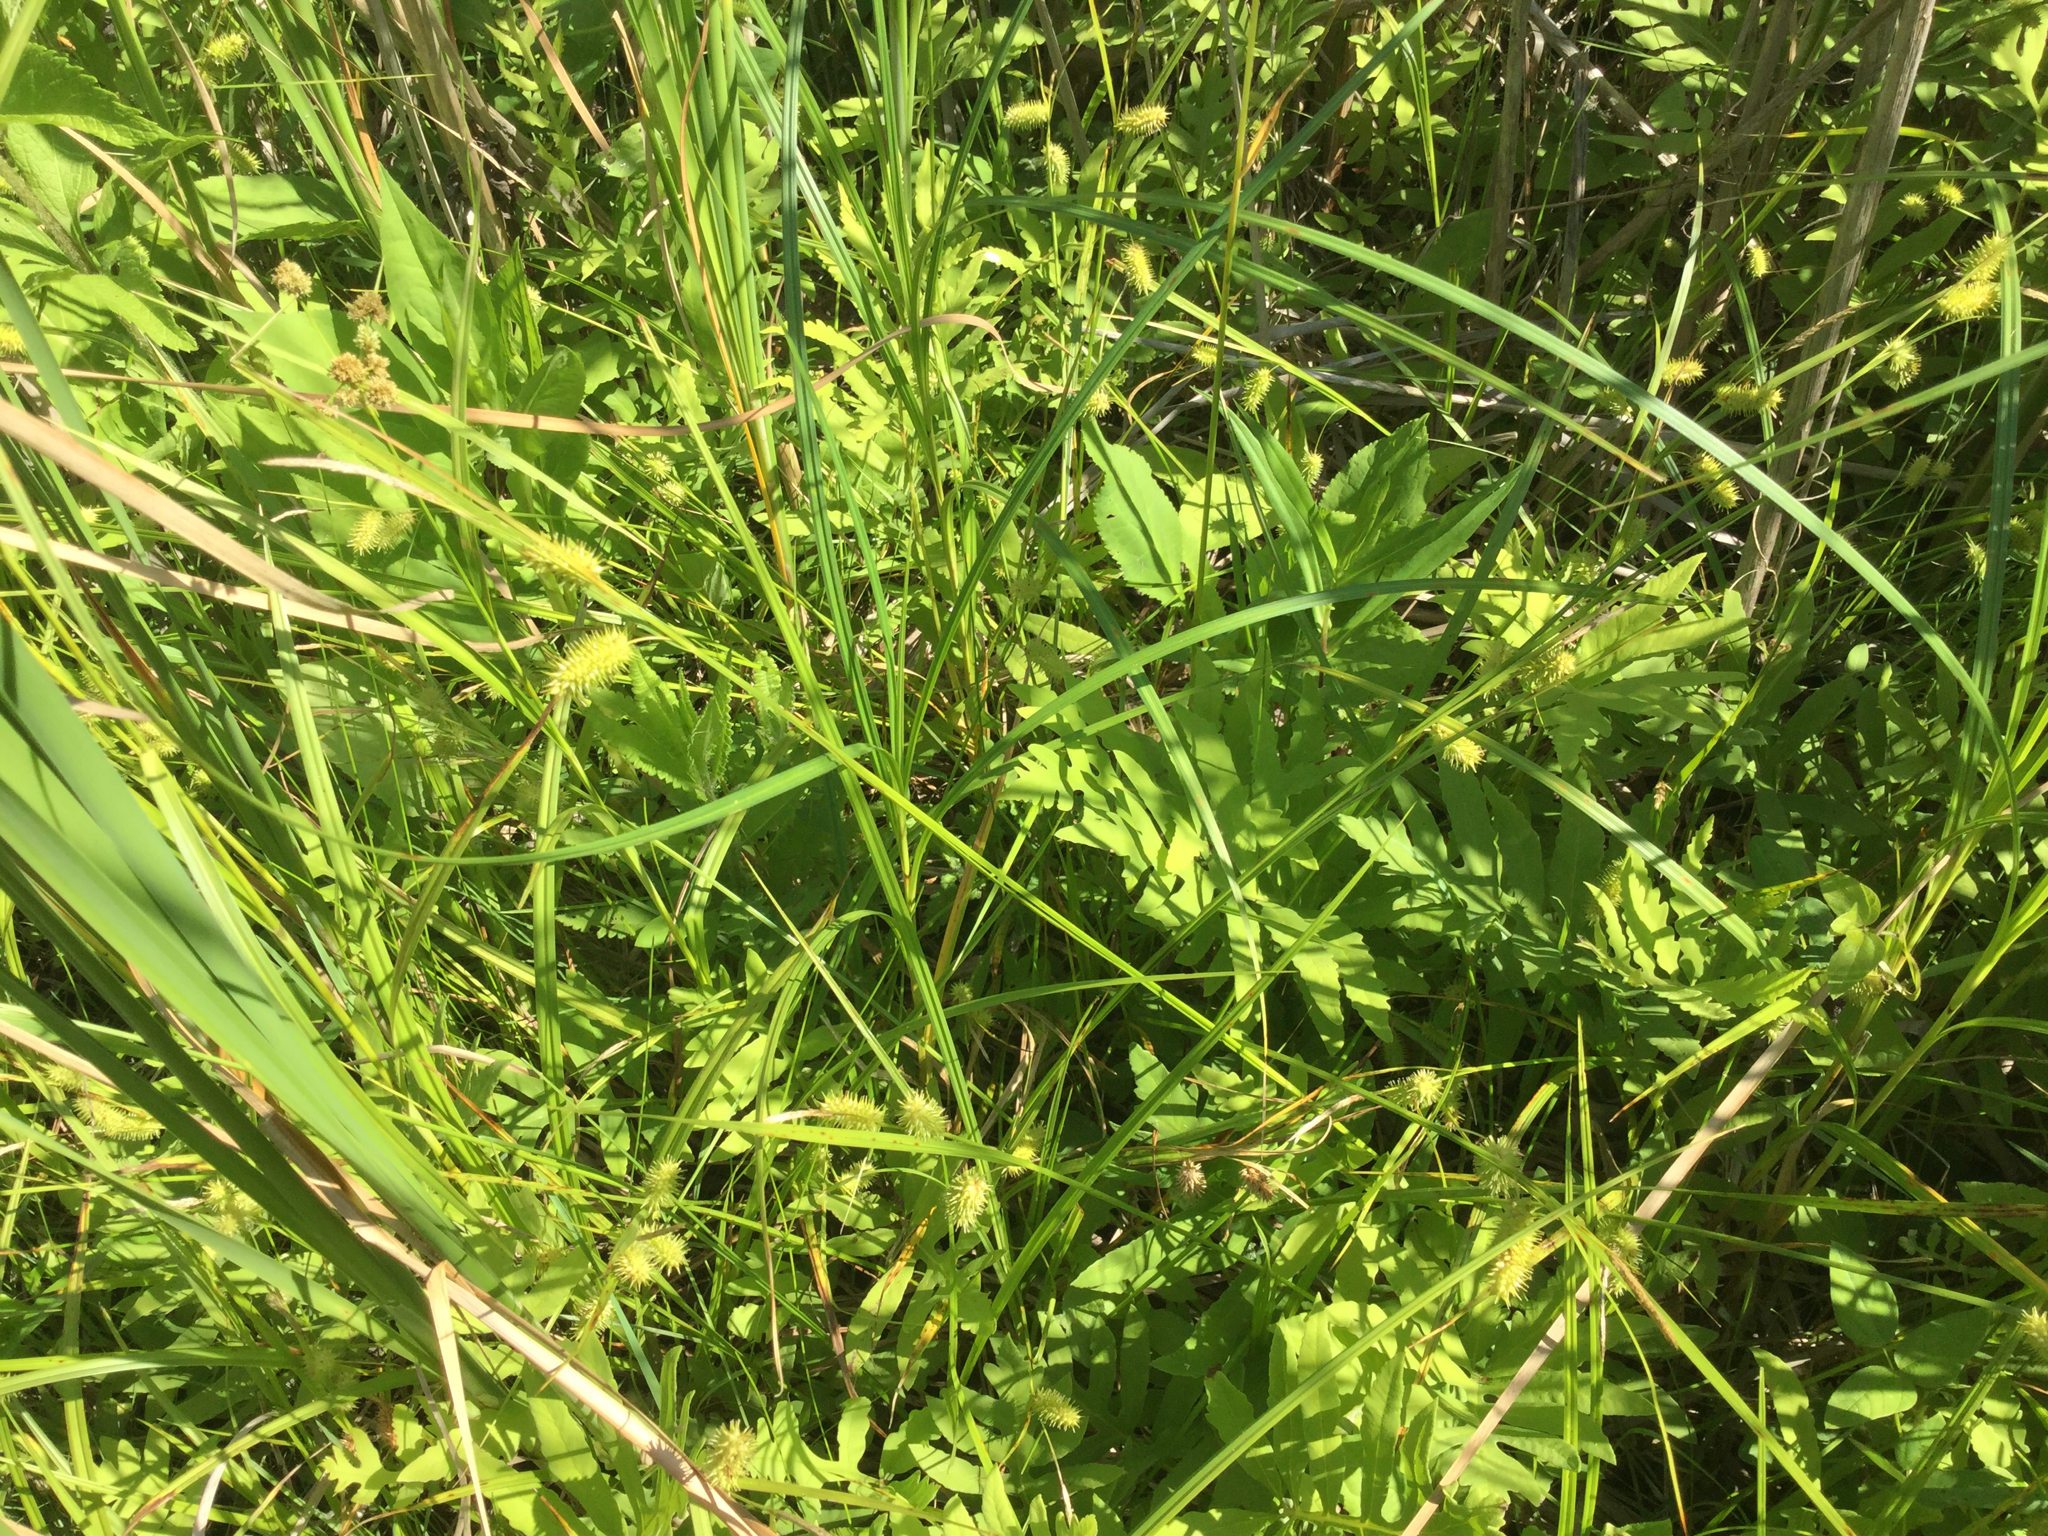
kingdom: Plantae
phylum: Tracheophyta
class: Liliopsida
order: Poales
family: Cyperaceae
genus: Carex
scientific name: Carex hystericina
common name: Bottlebrush sedge
